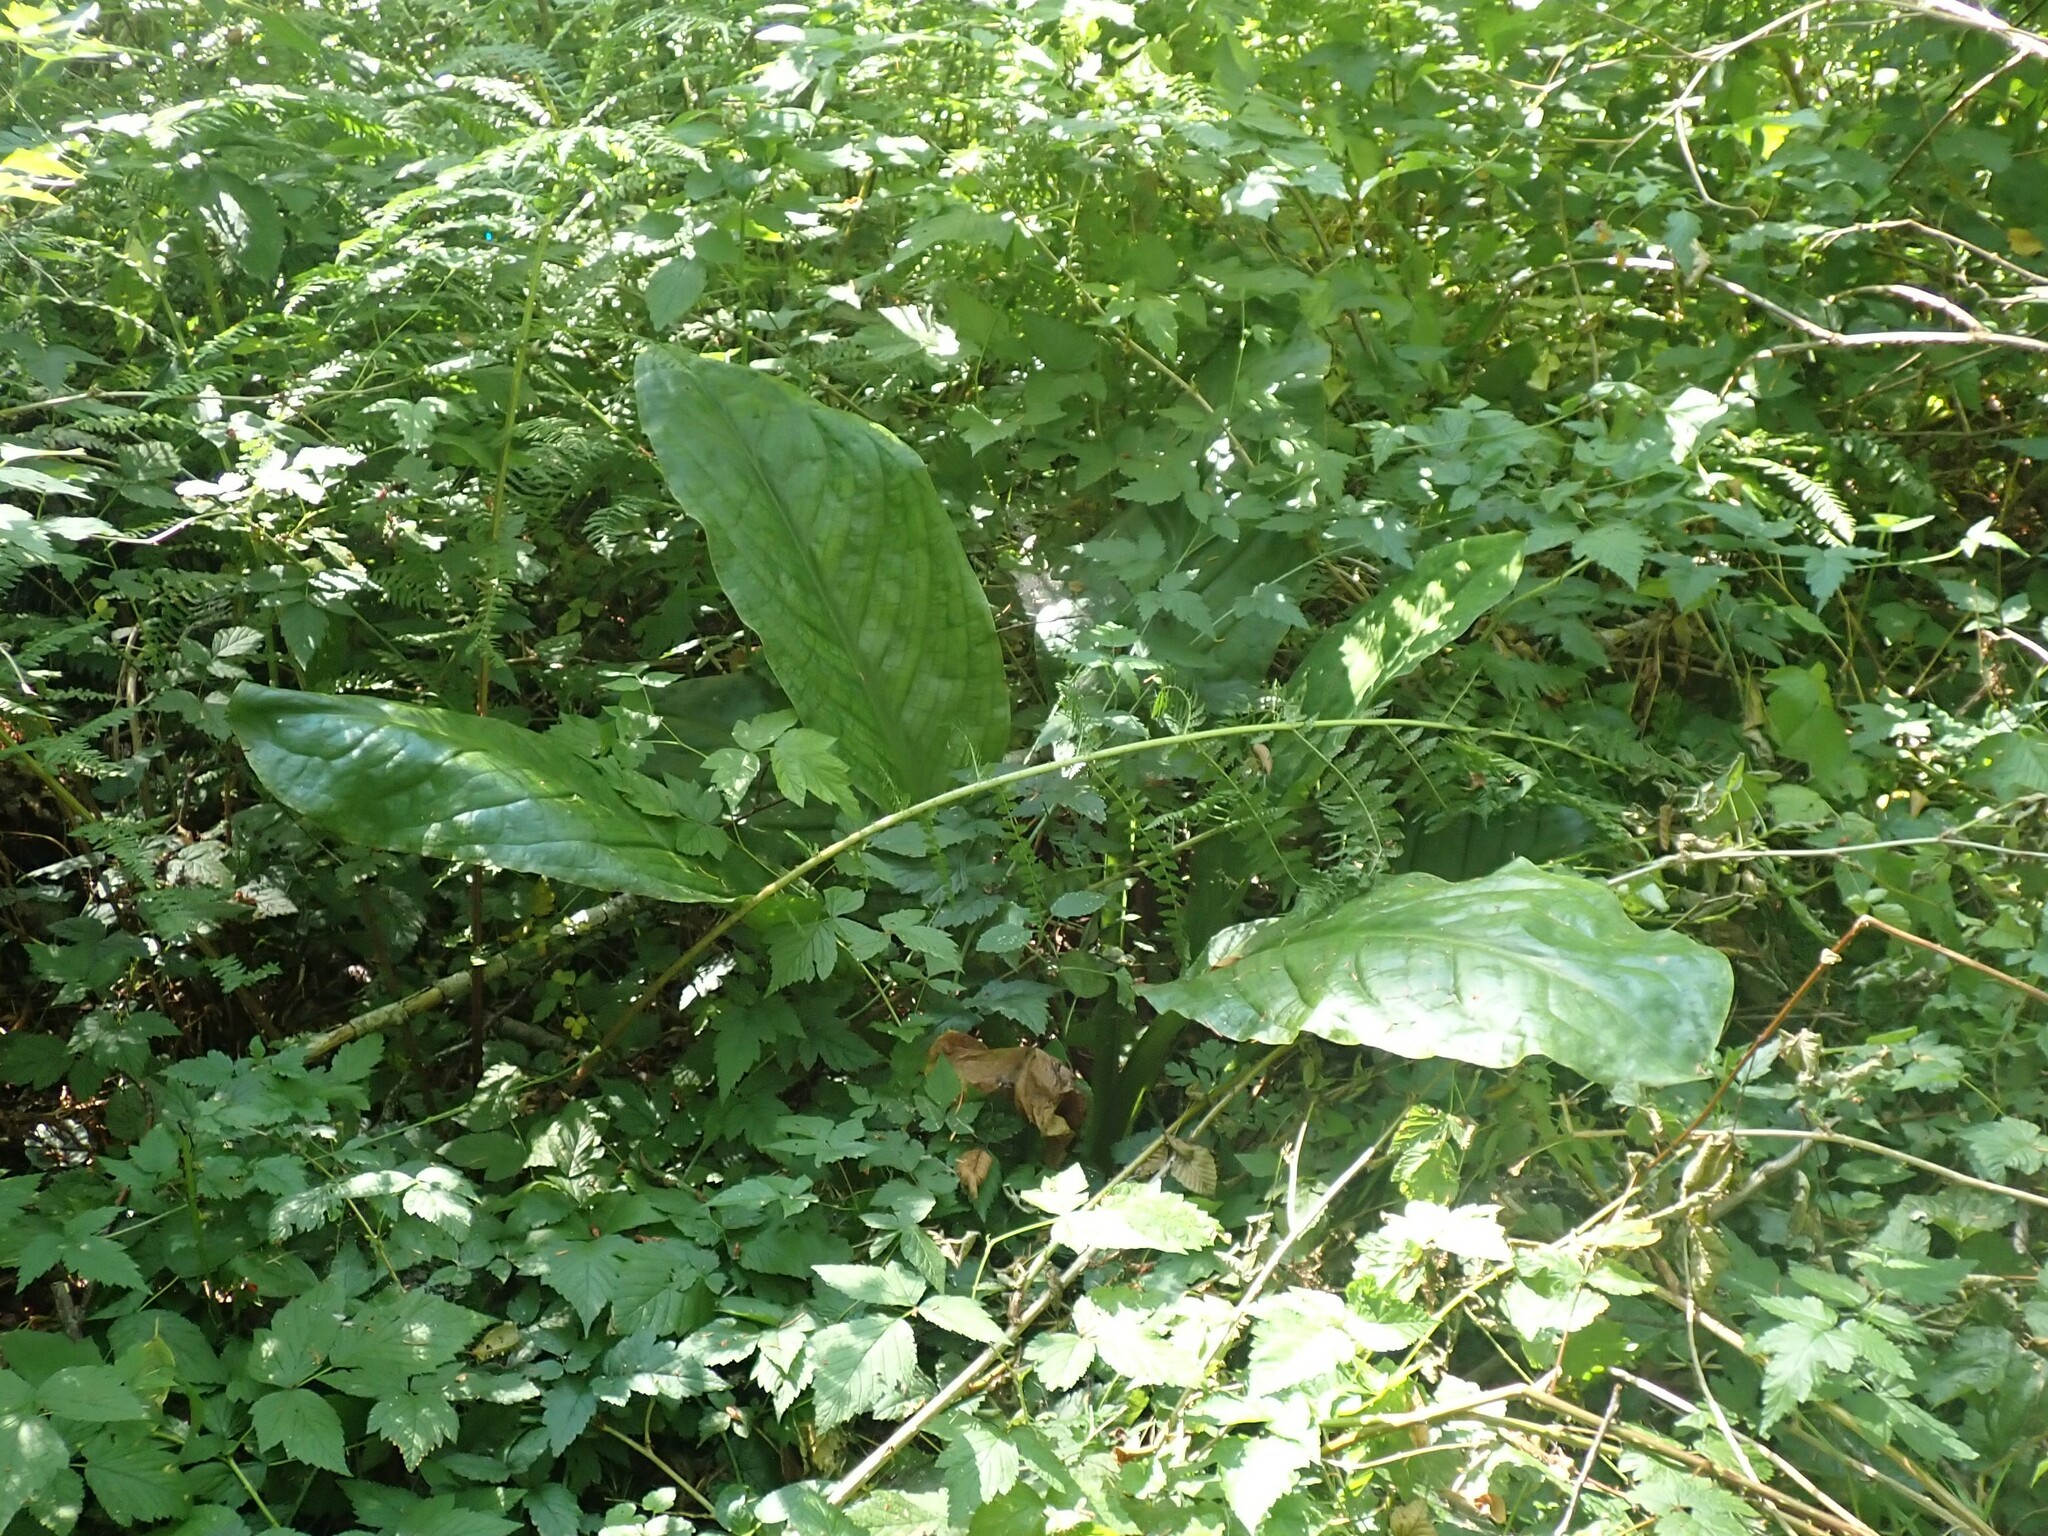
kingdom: Plantae
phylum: Tracheophyta
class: Liliopsida
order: Alismatales
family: Araceae
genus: Lysichiton
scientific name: Lysichiton americanus
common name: American skunk cabbage
